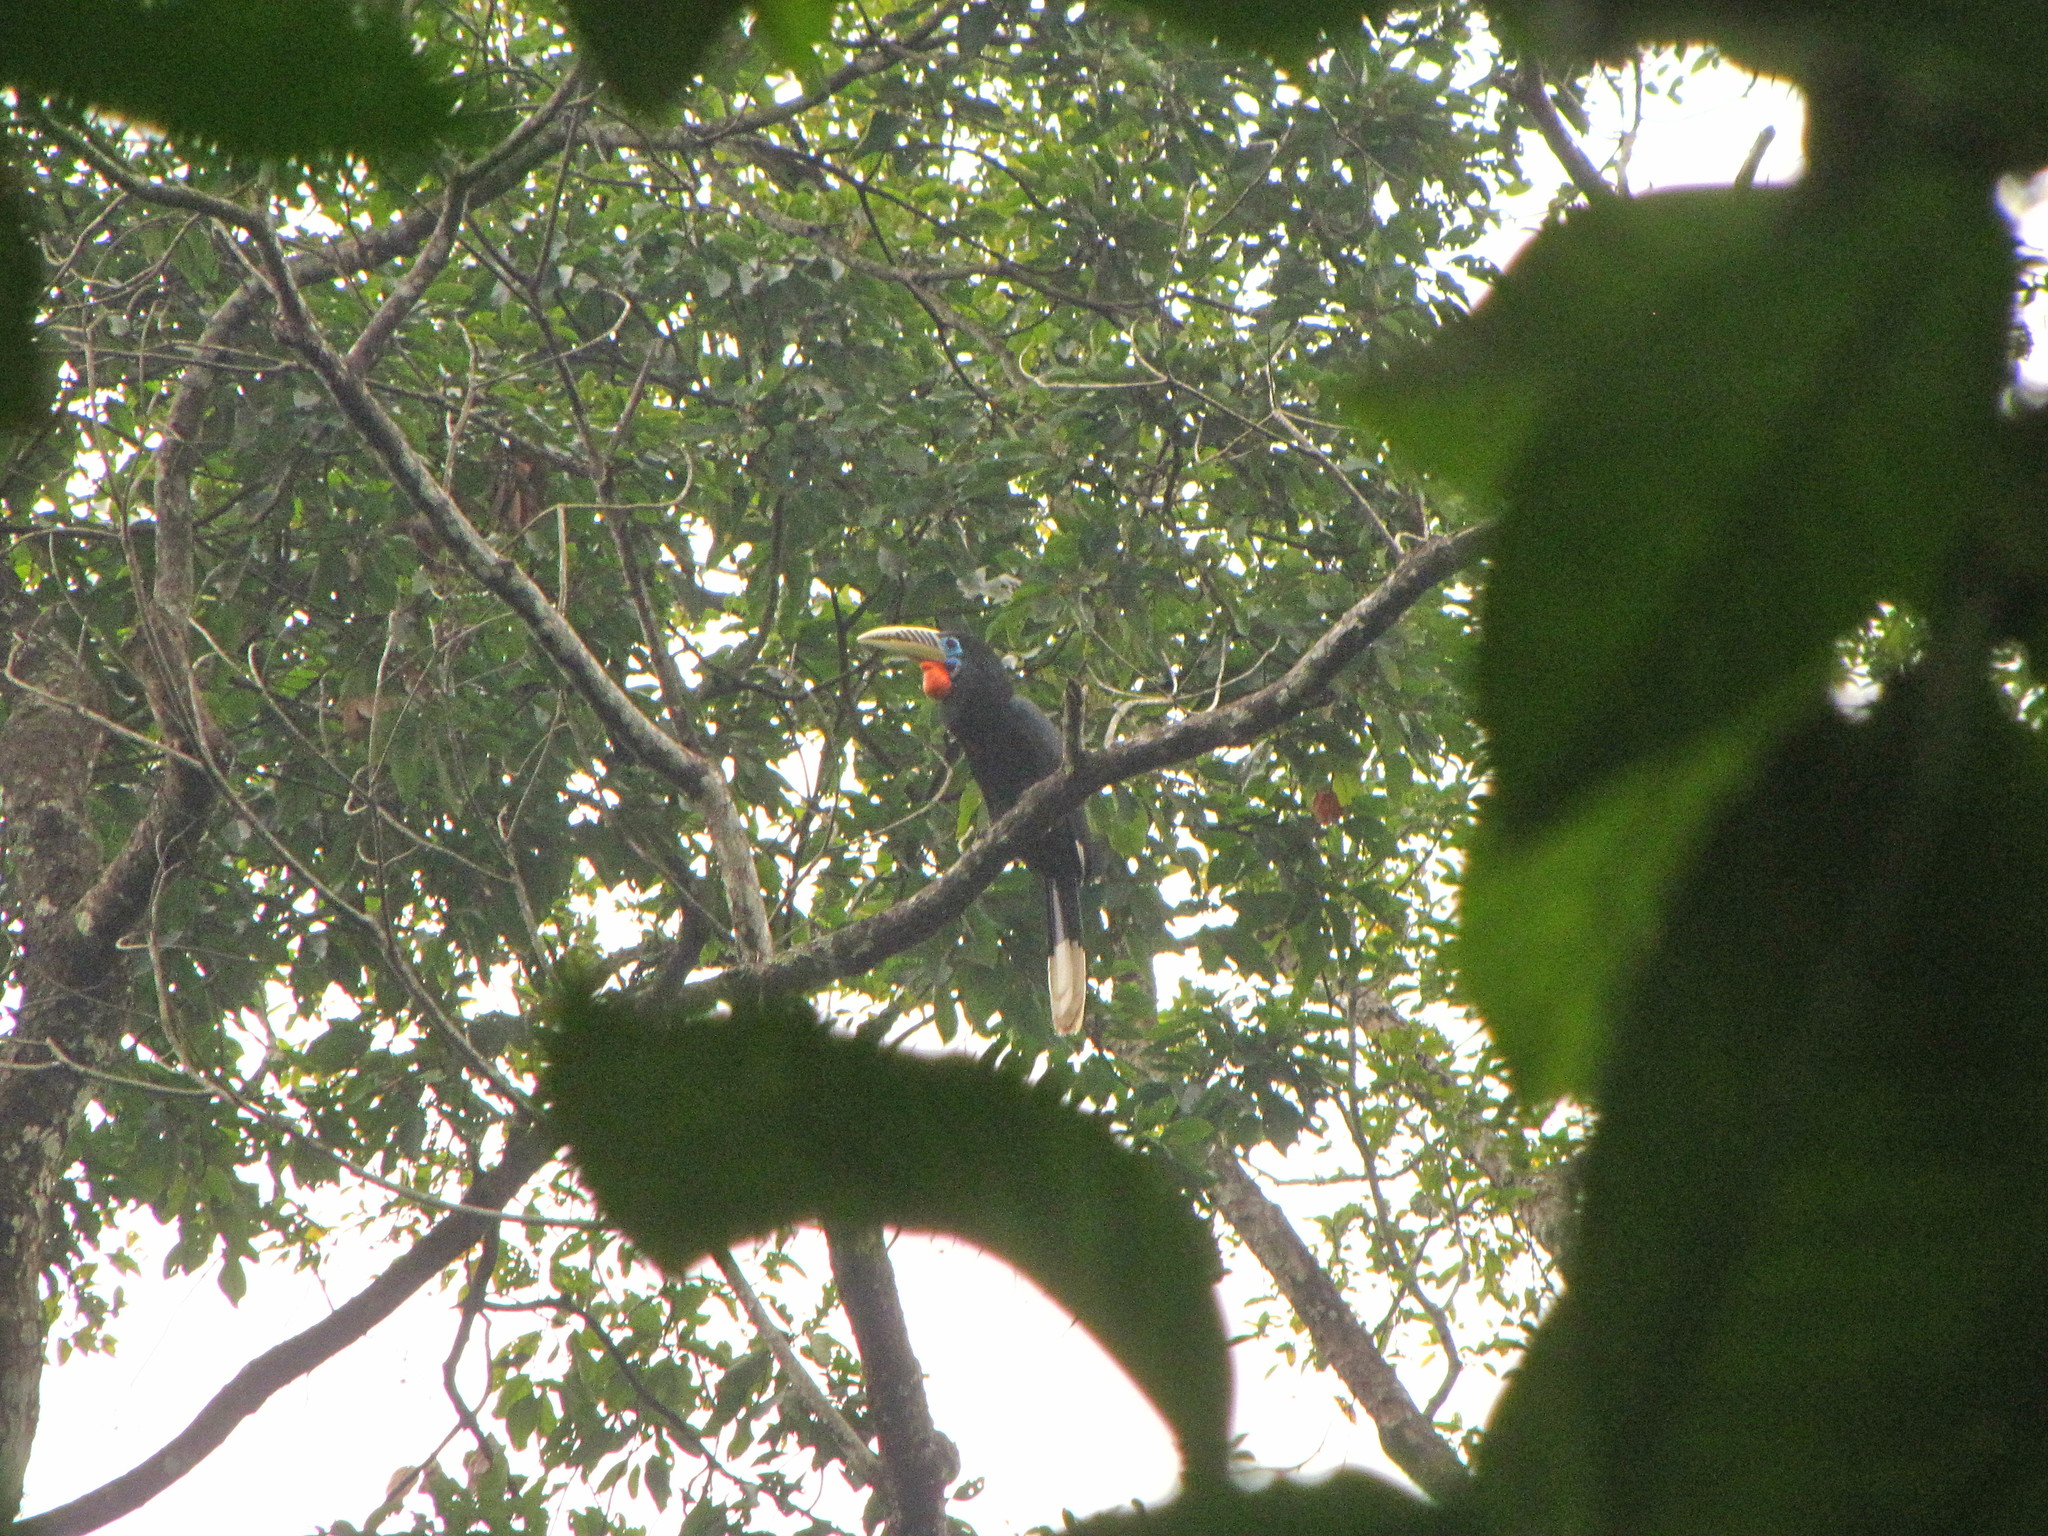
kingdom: Animalia
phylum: Chordata
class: Aves
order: Bucerotiformes
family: Bucerotidae
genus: Aceros
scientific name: Aceros nipalensis
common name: Rufous-necked hornbill
